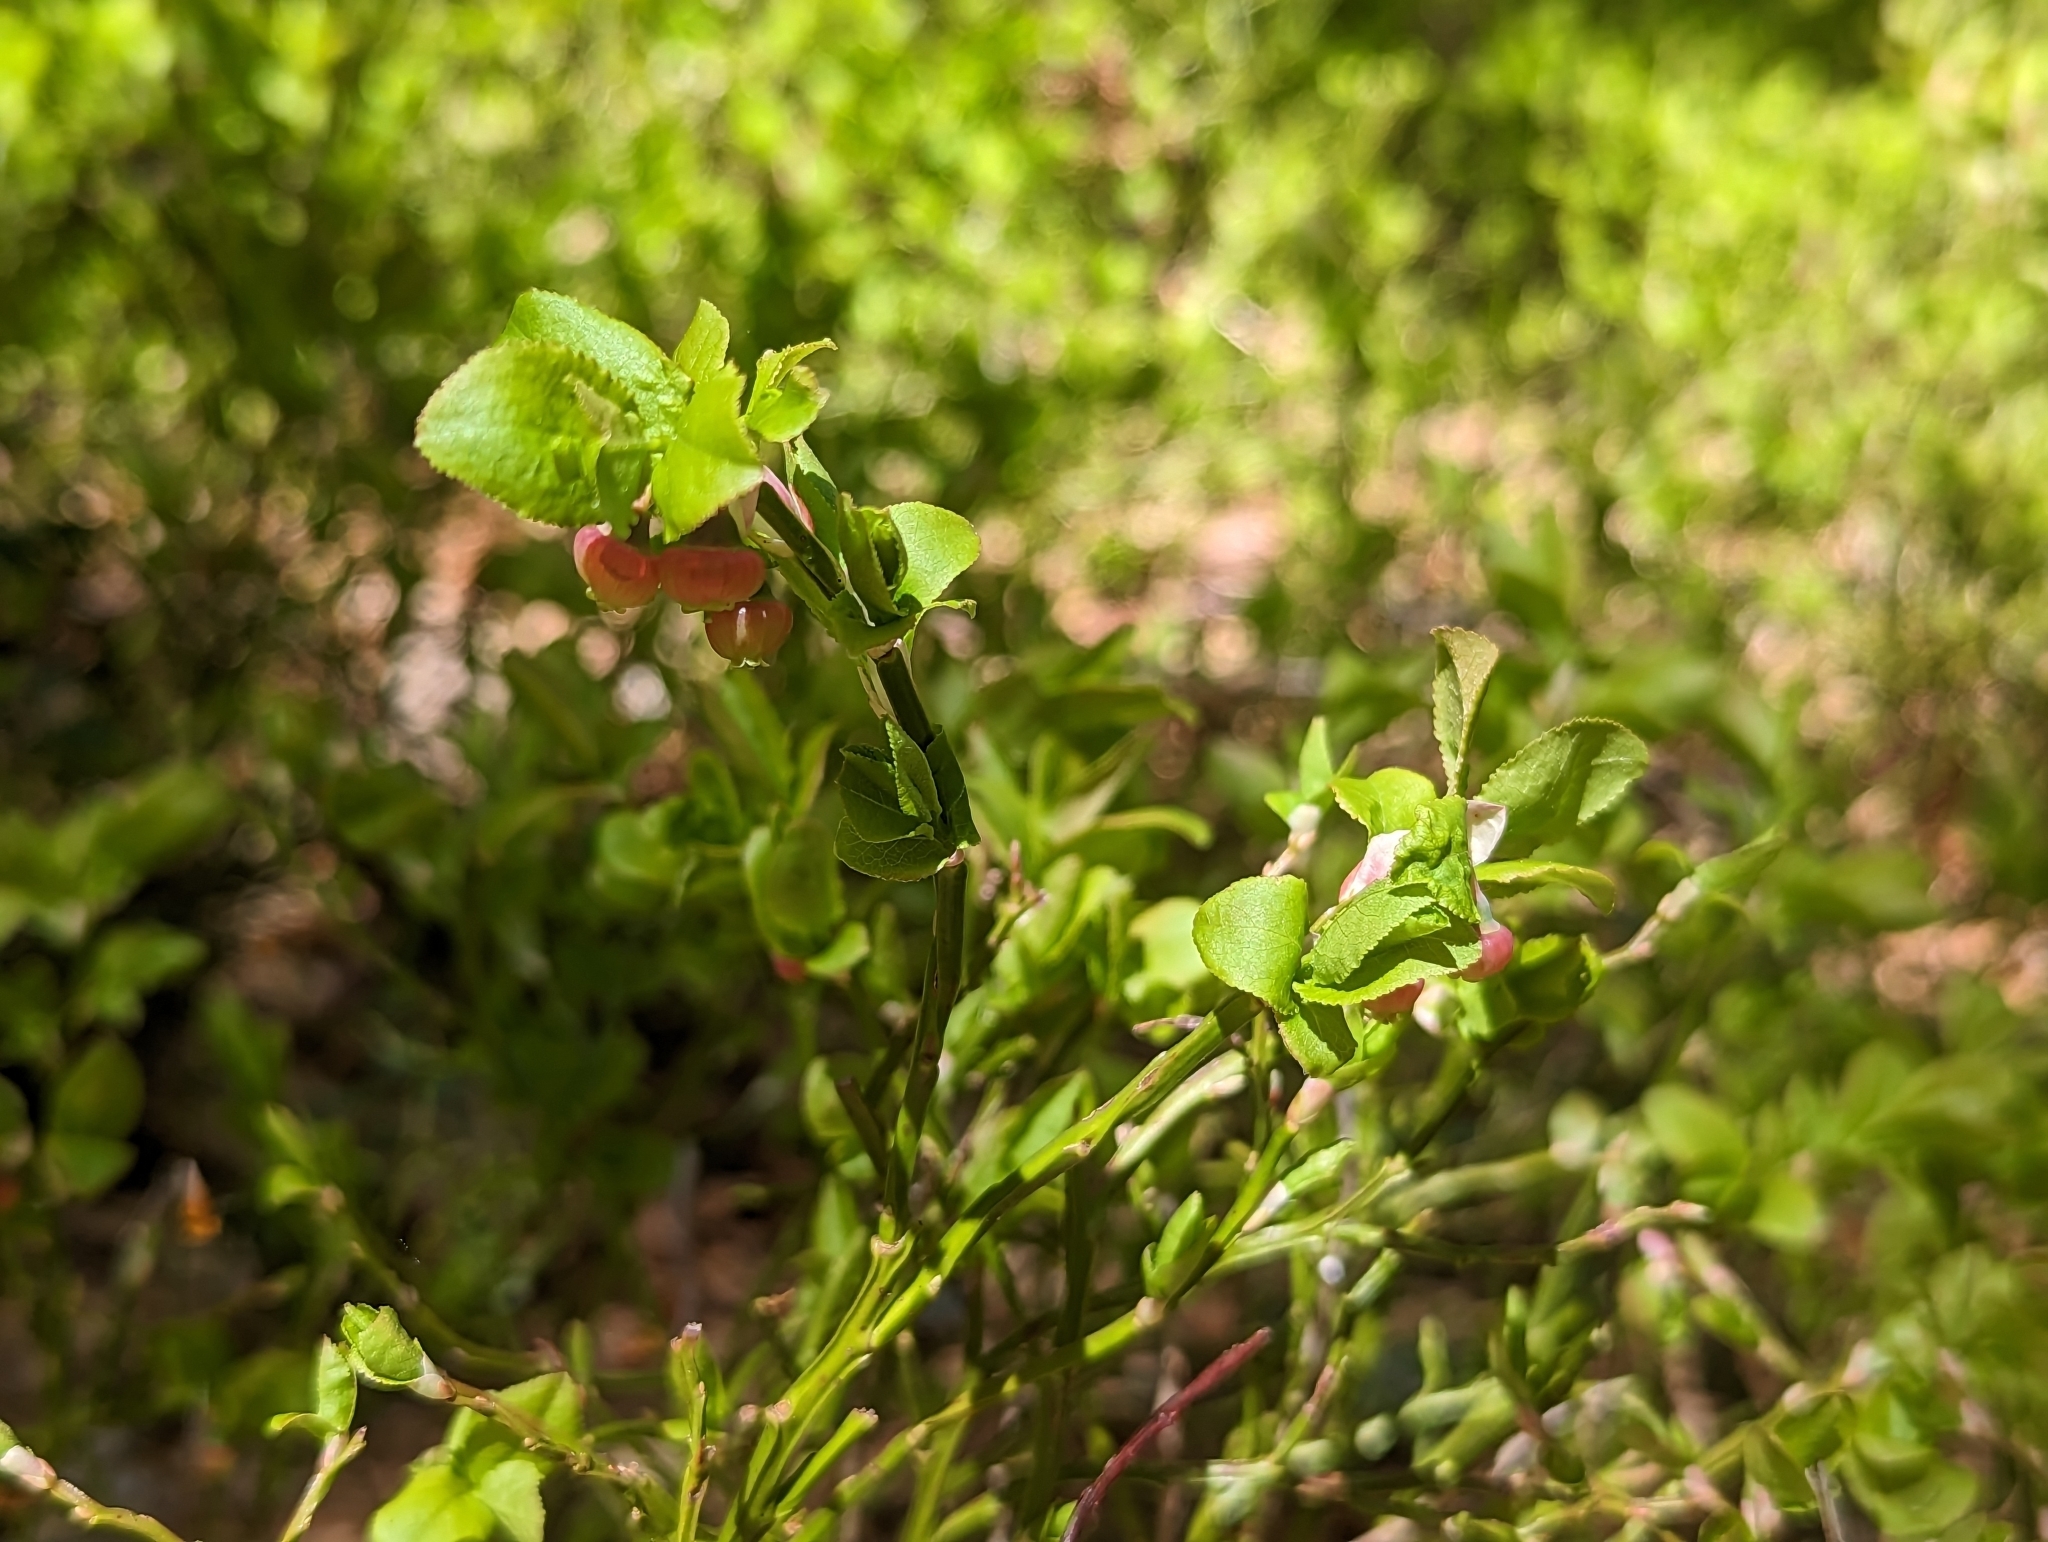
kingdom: Plantae
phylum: Tracheophyta
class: Magnoliopsida
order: Ericales
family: Ericaceae
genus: Vaccinium
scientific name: Vaccinium myrtillus
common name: Bilberry
